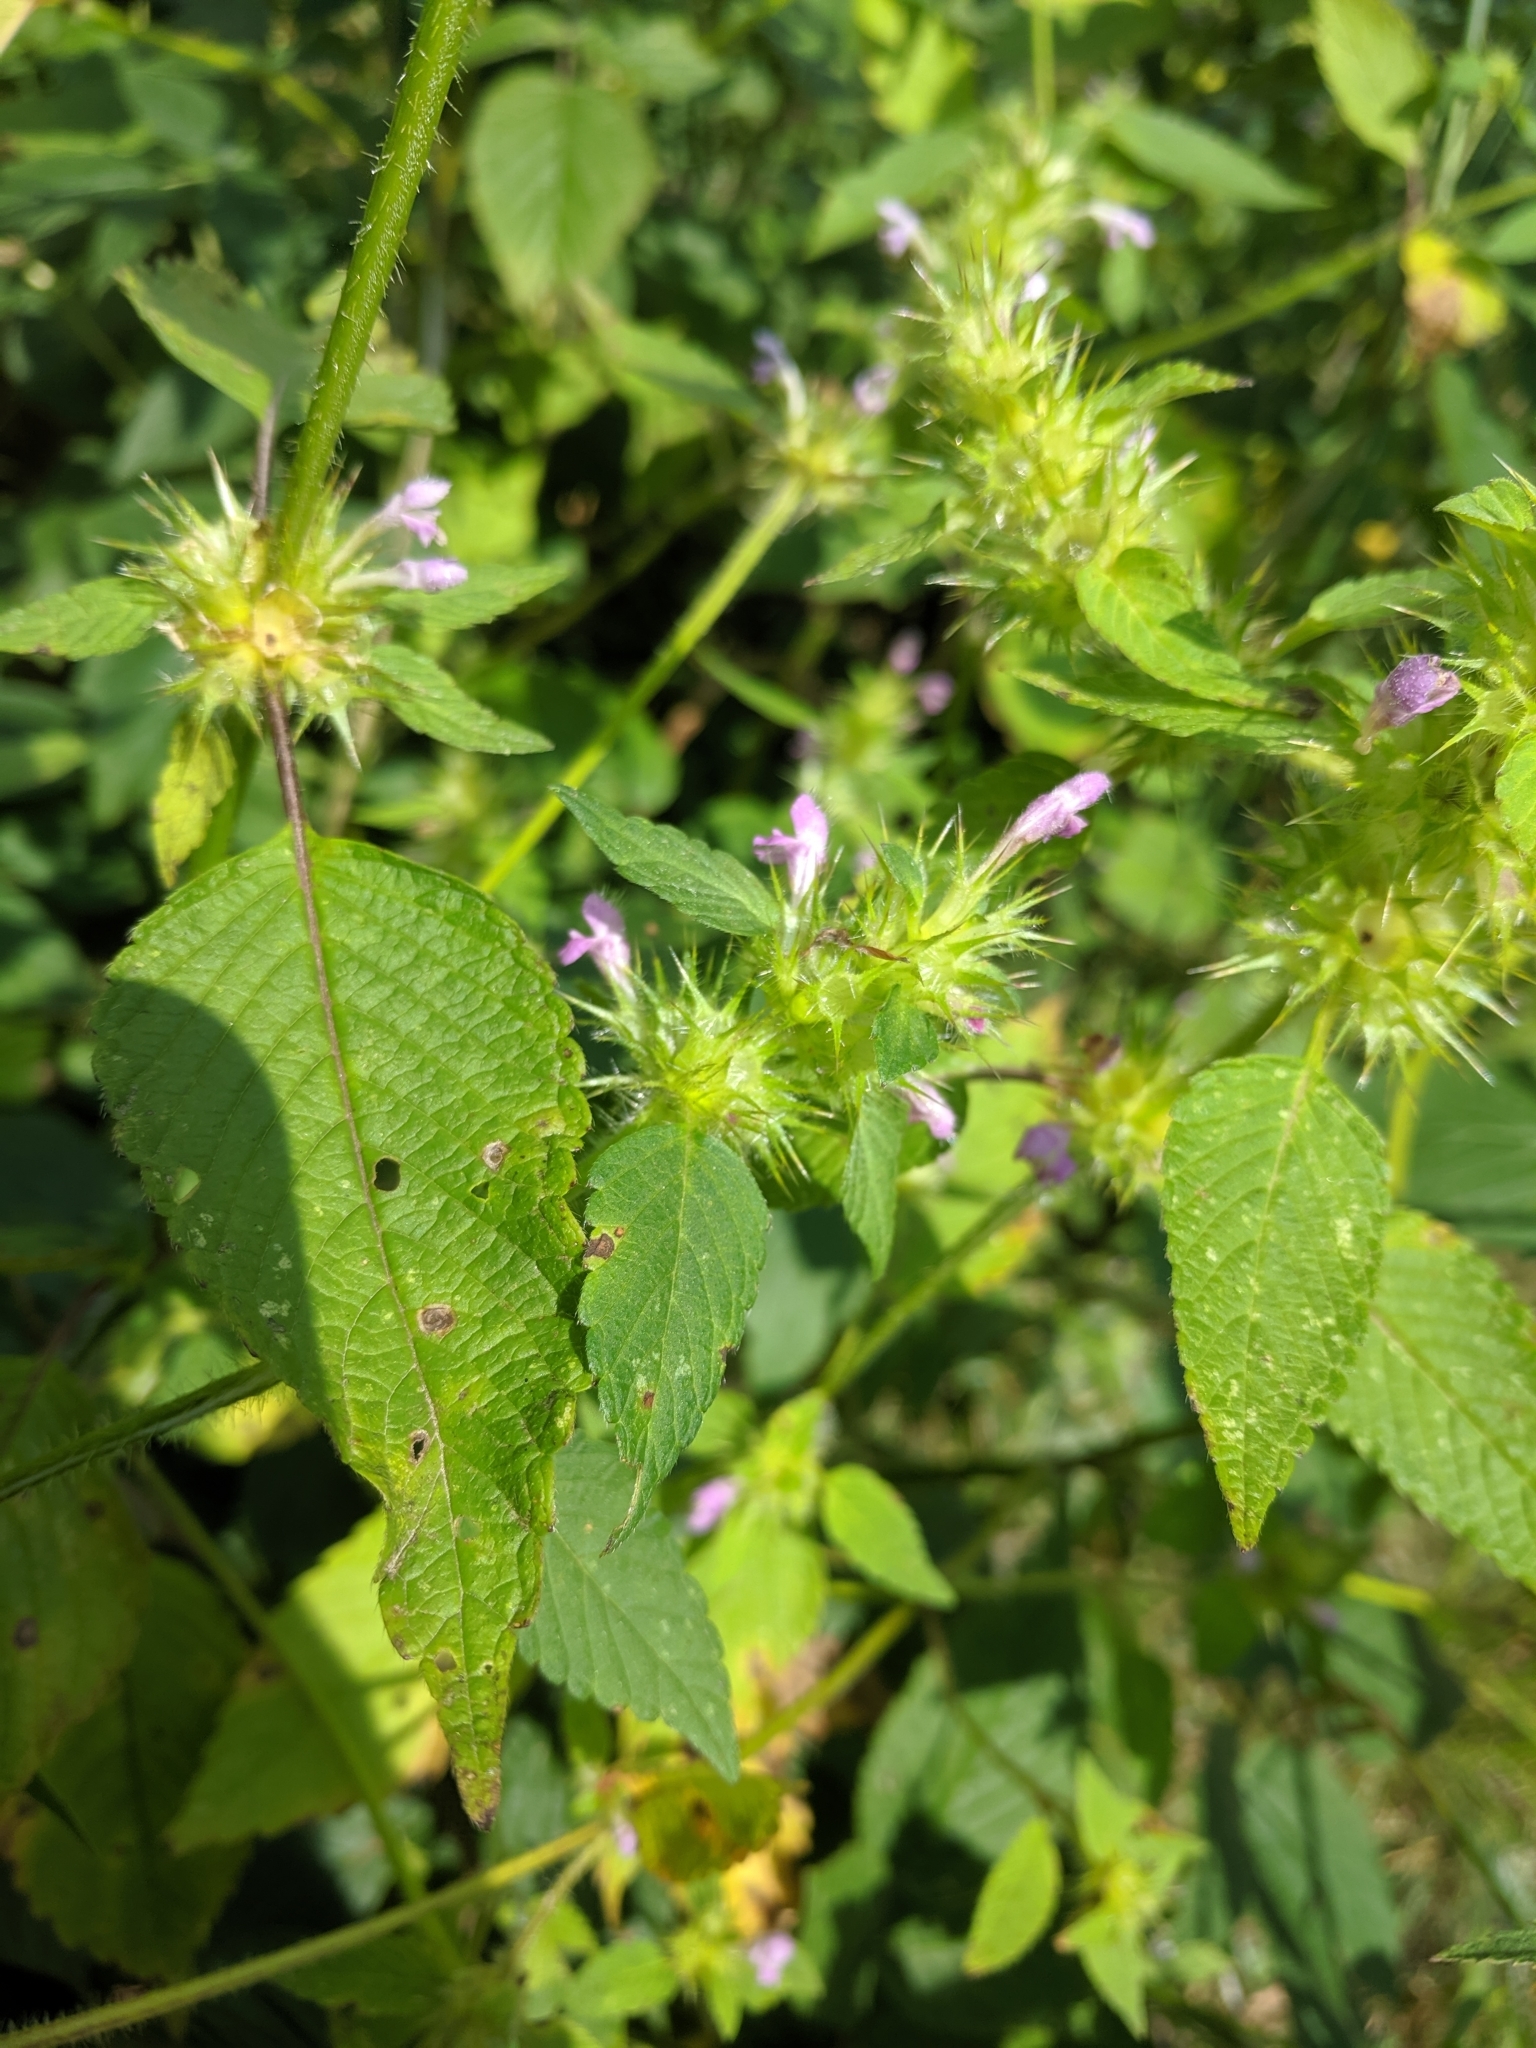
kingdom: Plantae
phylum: Tracheophyta
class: Magnoliopsida
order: Lamiales
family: Lamiaceae
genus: Galeopsis
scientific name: Galeopsis tetrahit
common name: Common hemp-nettle
